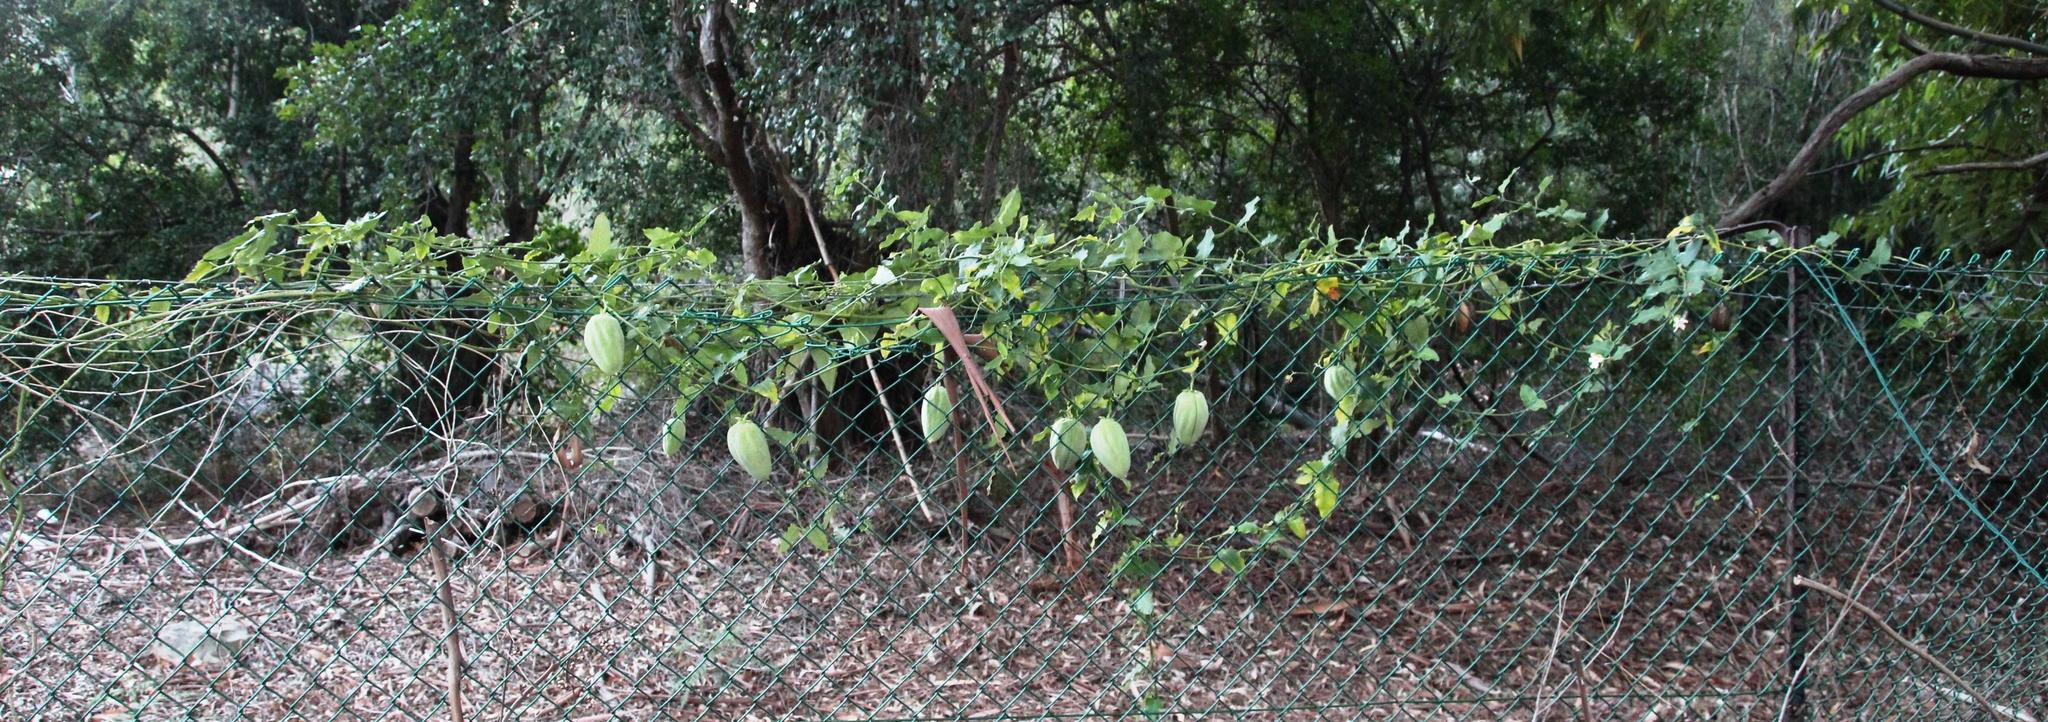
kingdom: Plantae
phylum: Tracheophyta
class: Magnoliopsida
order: Gentianales
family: Apocynaceae
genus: Araujia
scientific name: Araujia sericifera
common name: White bladderflower
